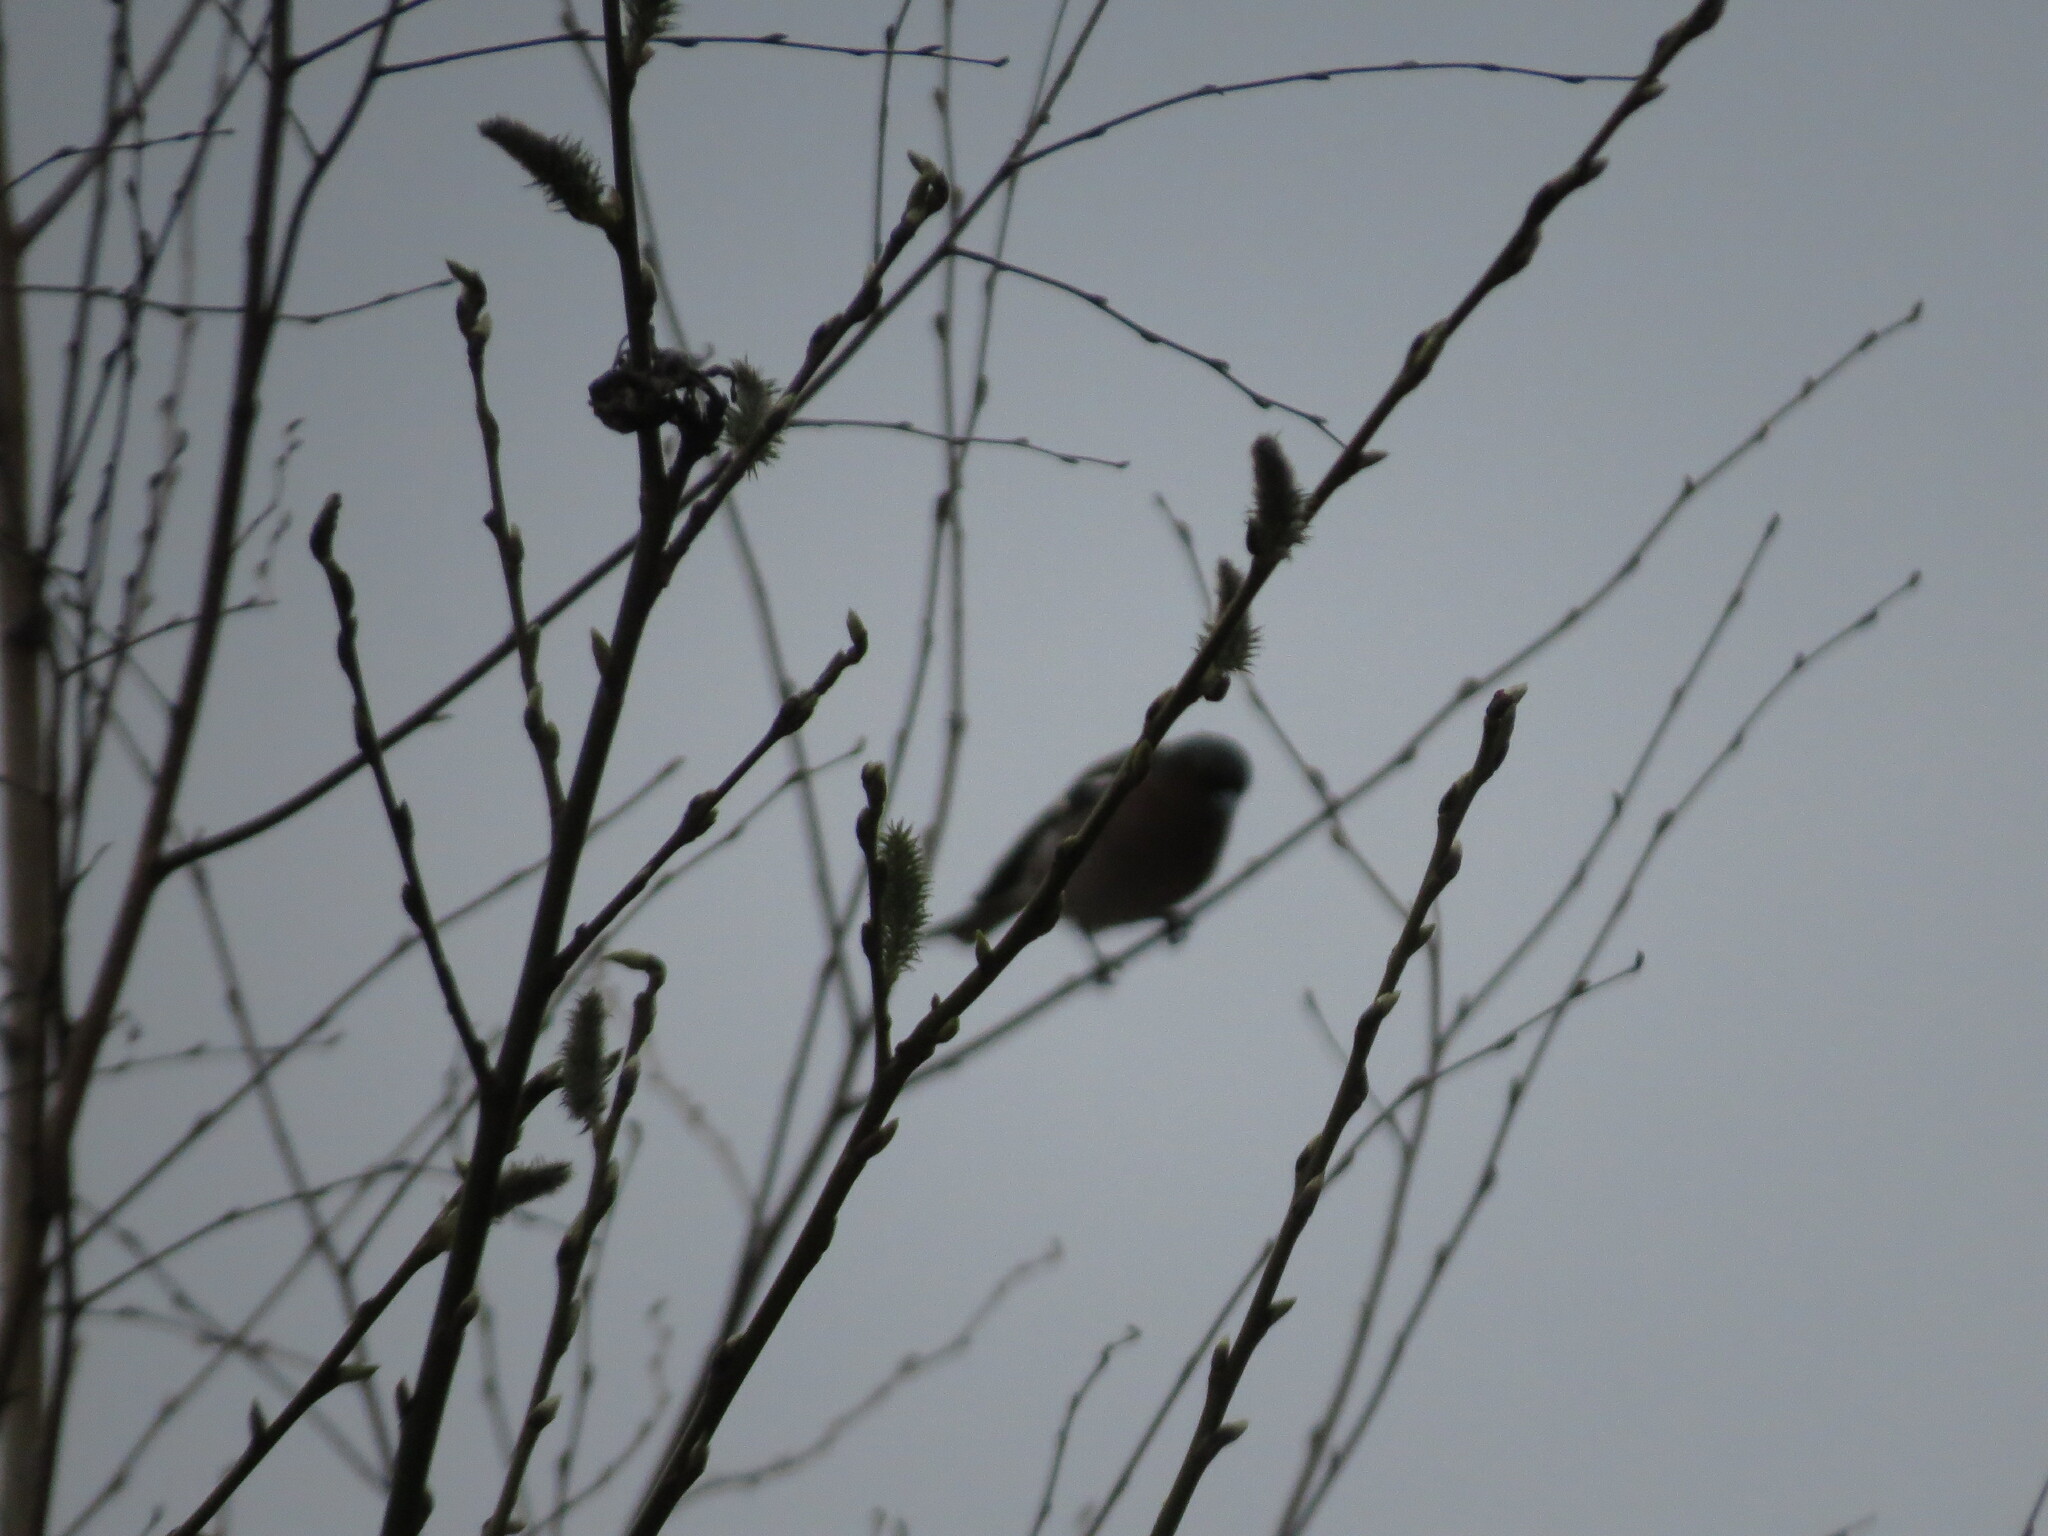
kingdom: Animalia
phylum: Chordata
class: Aves
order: Passeriformes
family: Fringillidae
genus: Fringilla
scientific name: Fringilla coelebs
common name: Common chaffinch
